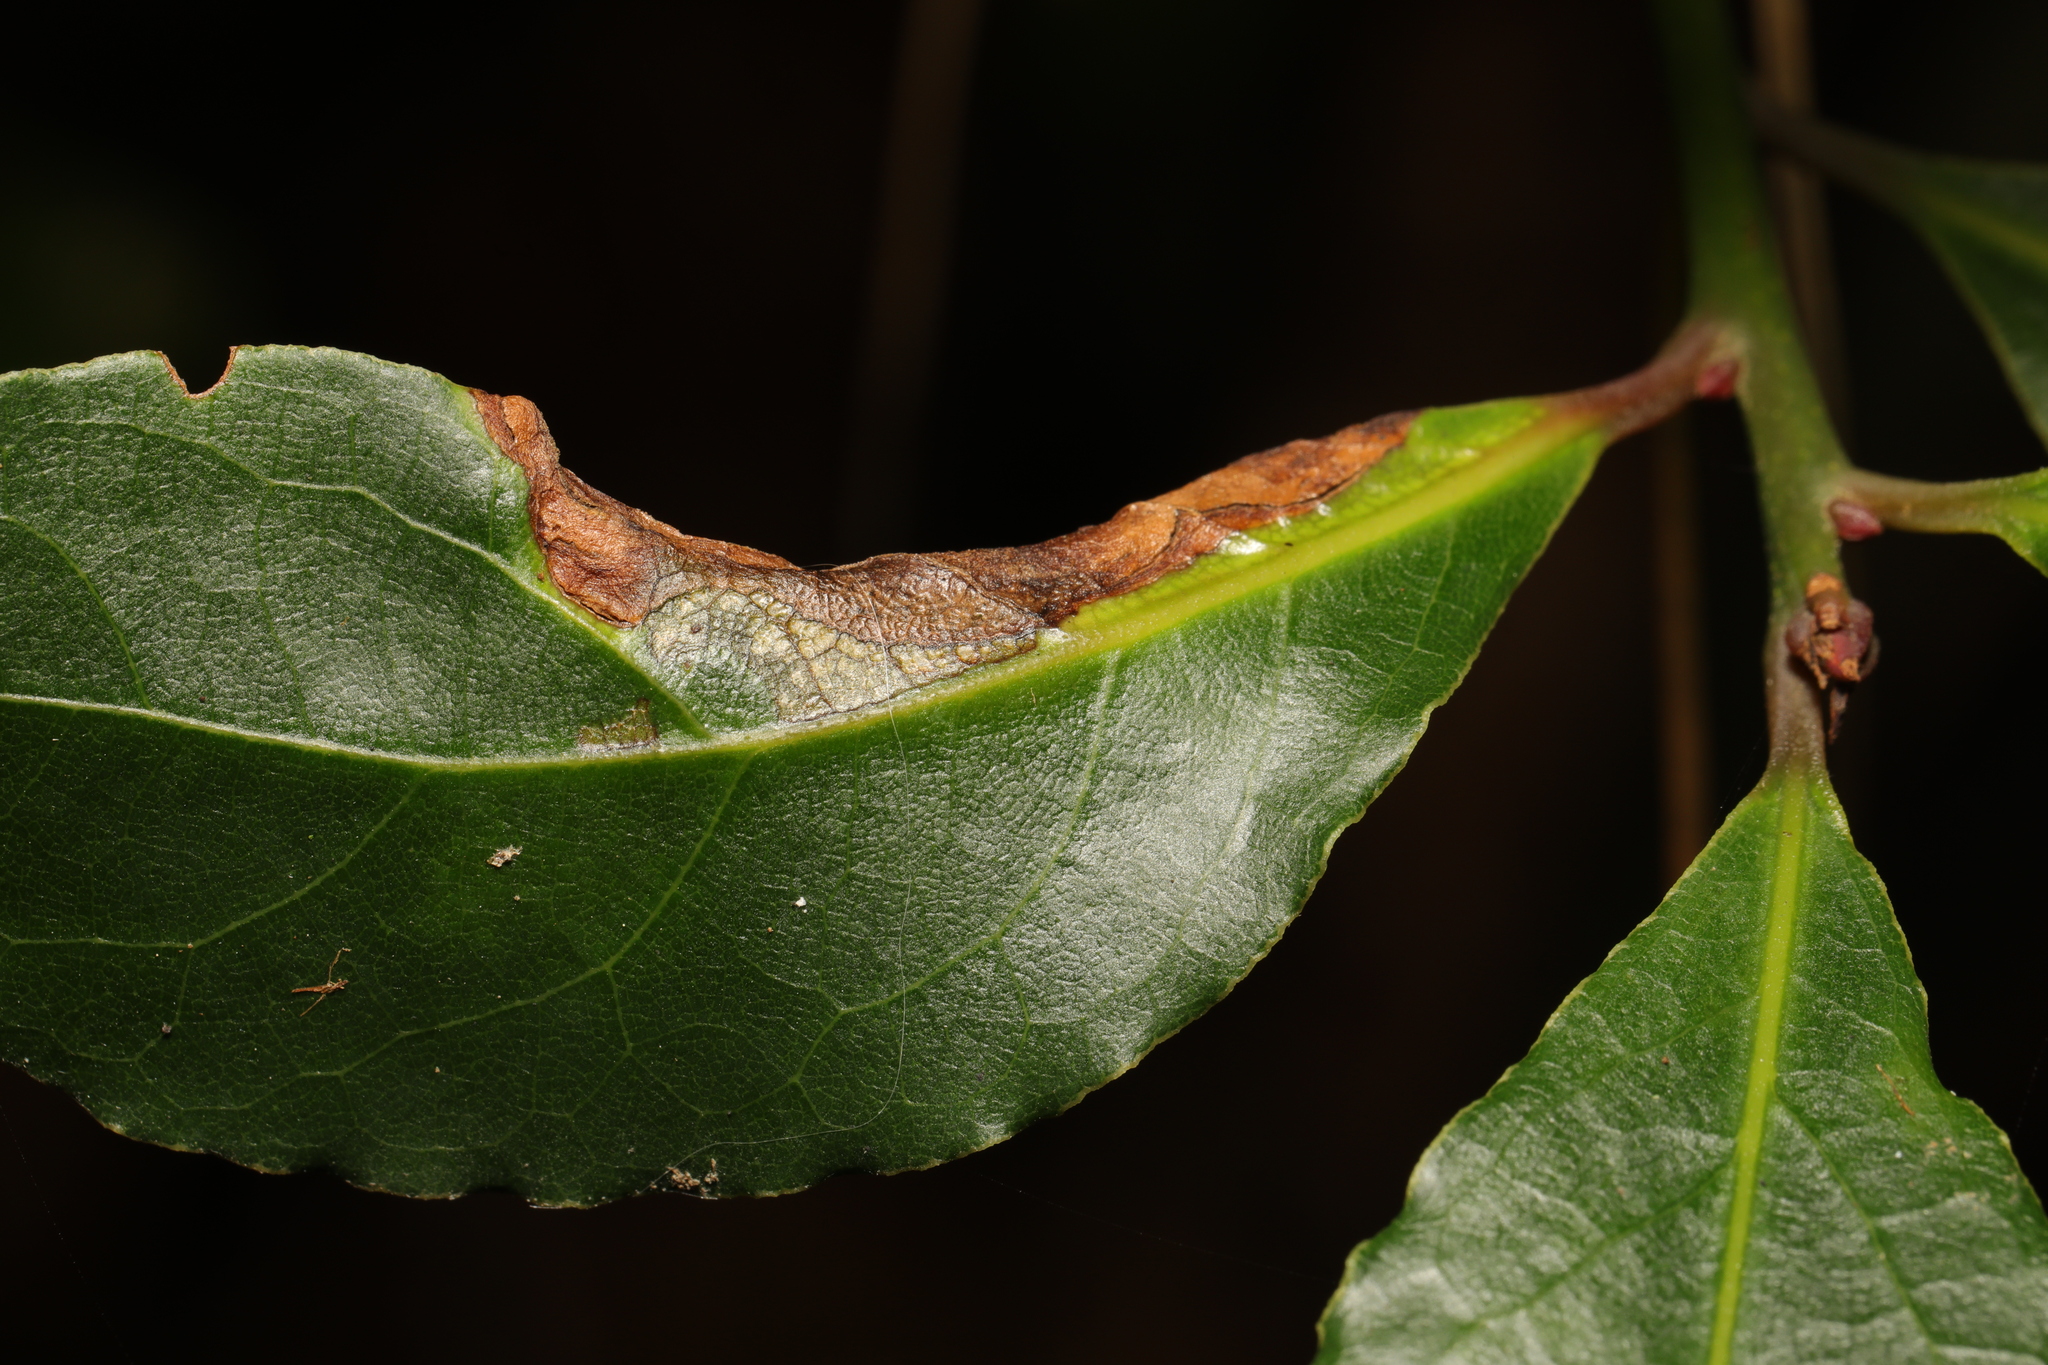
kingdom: Animalia
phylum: Arthropoda
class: Insecta
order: Hemiptera
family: Triozidae
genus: Lauritrioza
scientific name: Lauritrioza alacris
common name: Laurel psyllid
